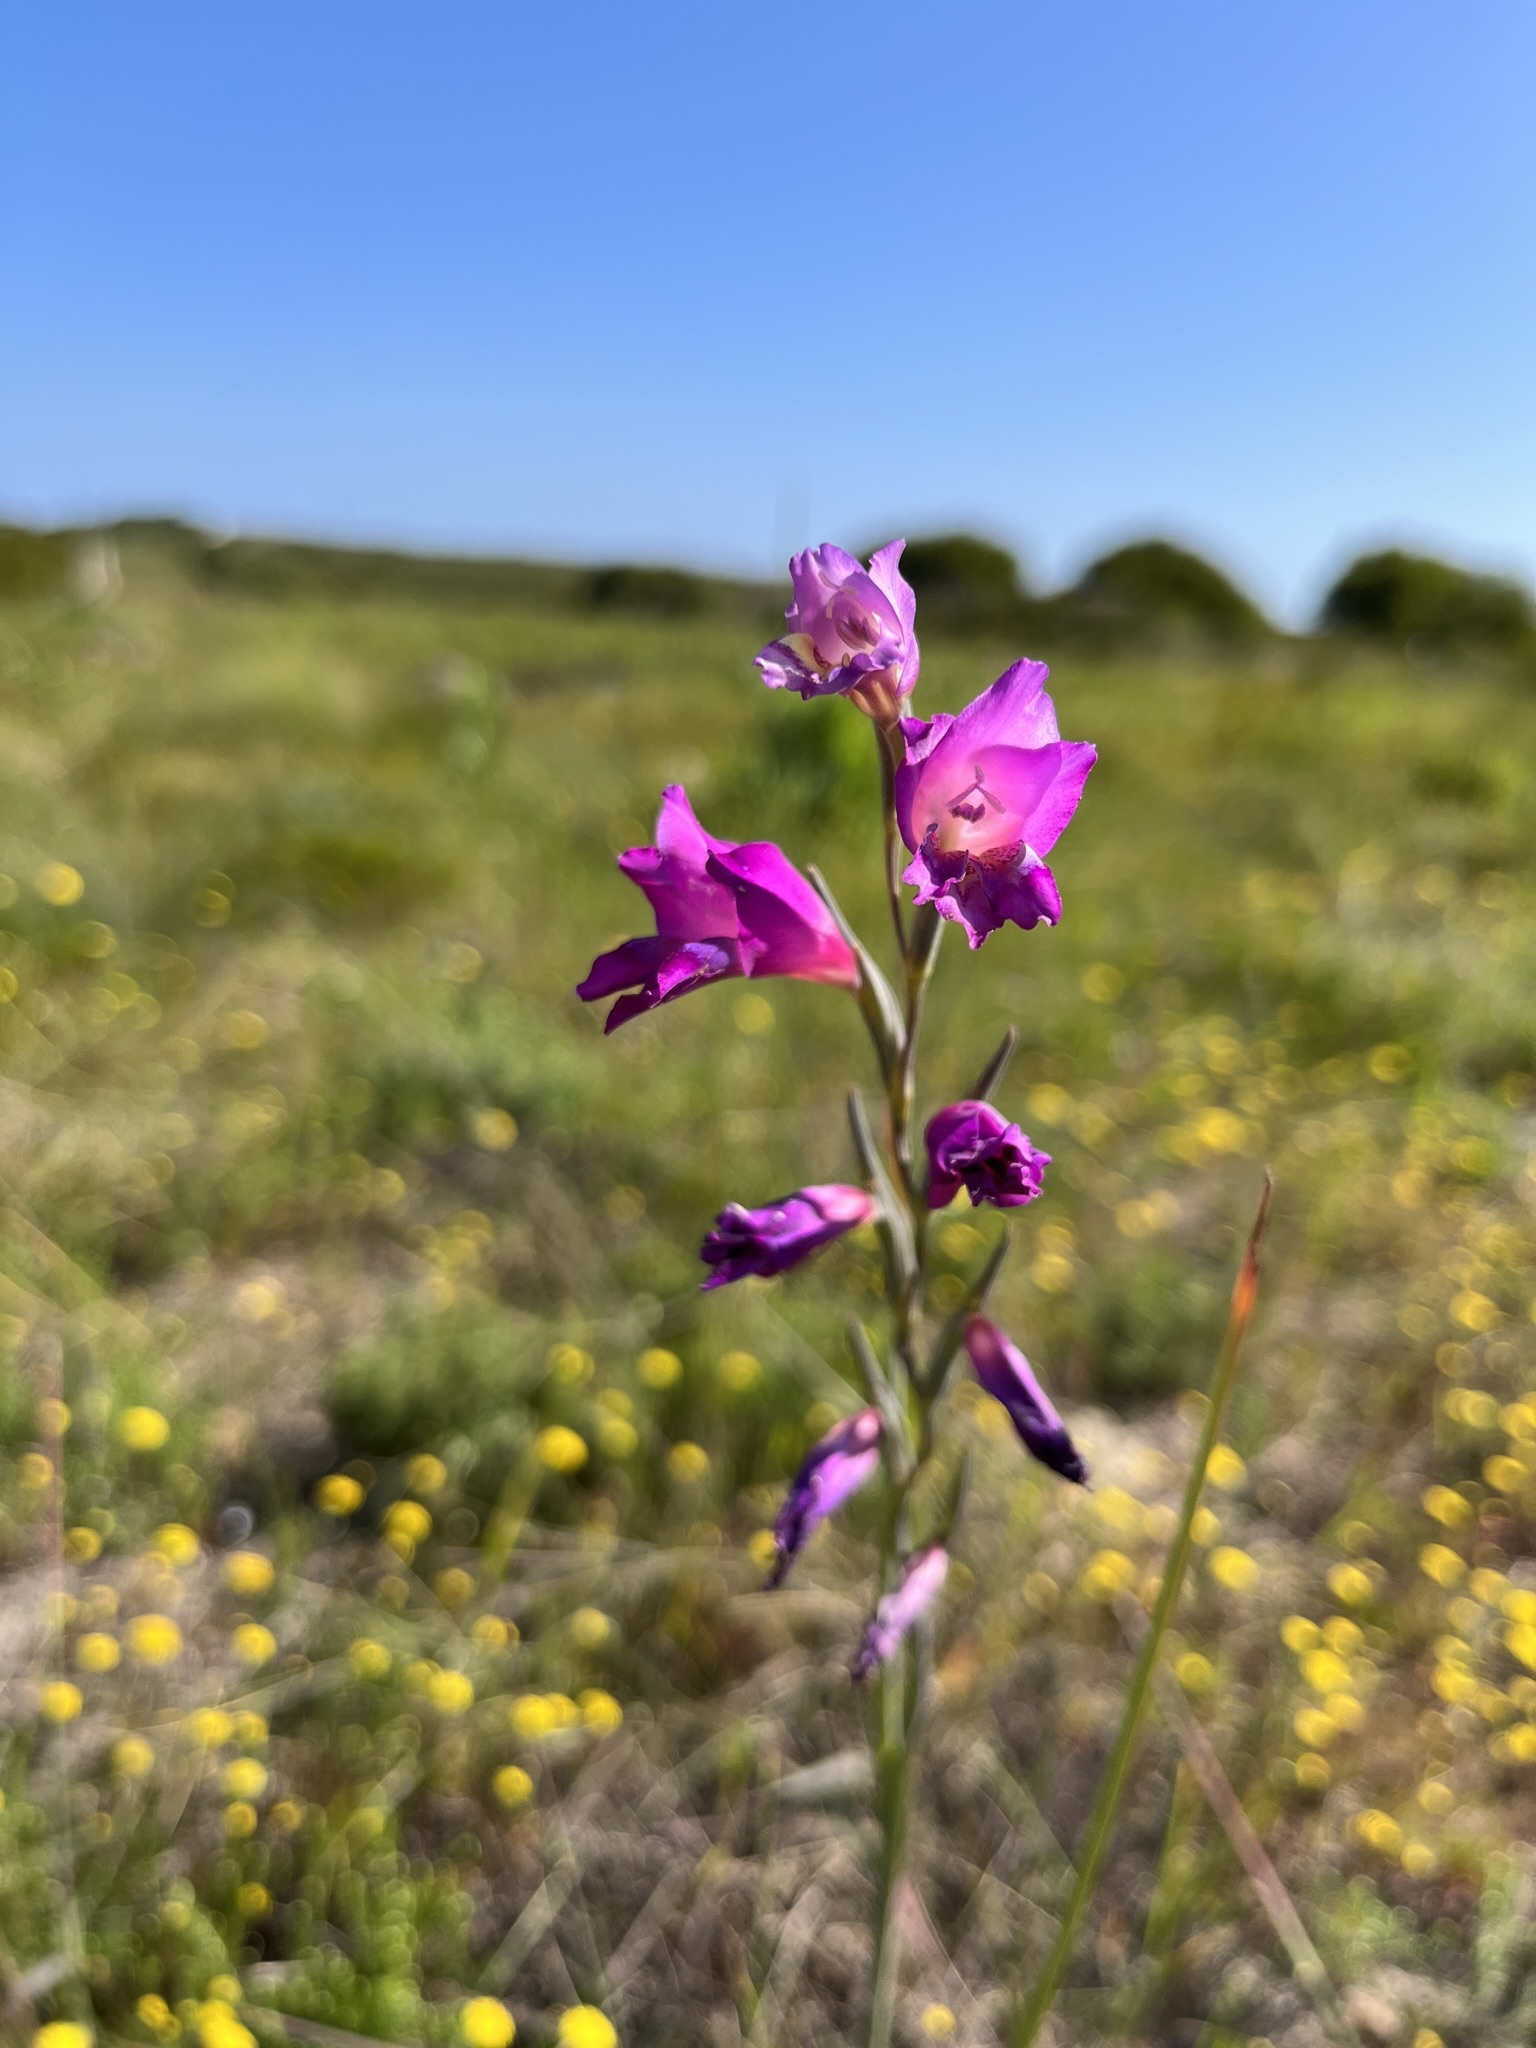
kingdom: Plantae
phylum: Tracheophyta
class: Liliopsida
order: Asparagales
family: Iridaceae
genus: Gladiolus
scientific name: Gladiolus carinatus
